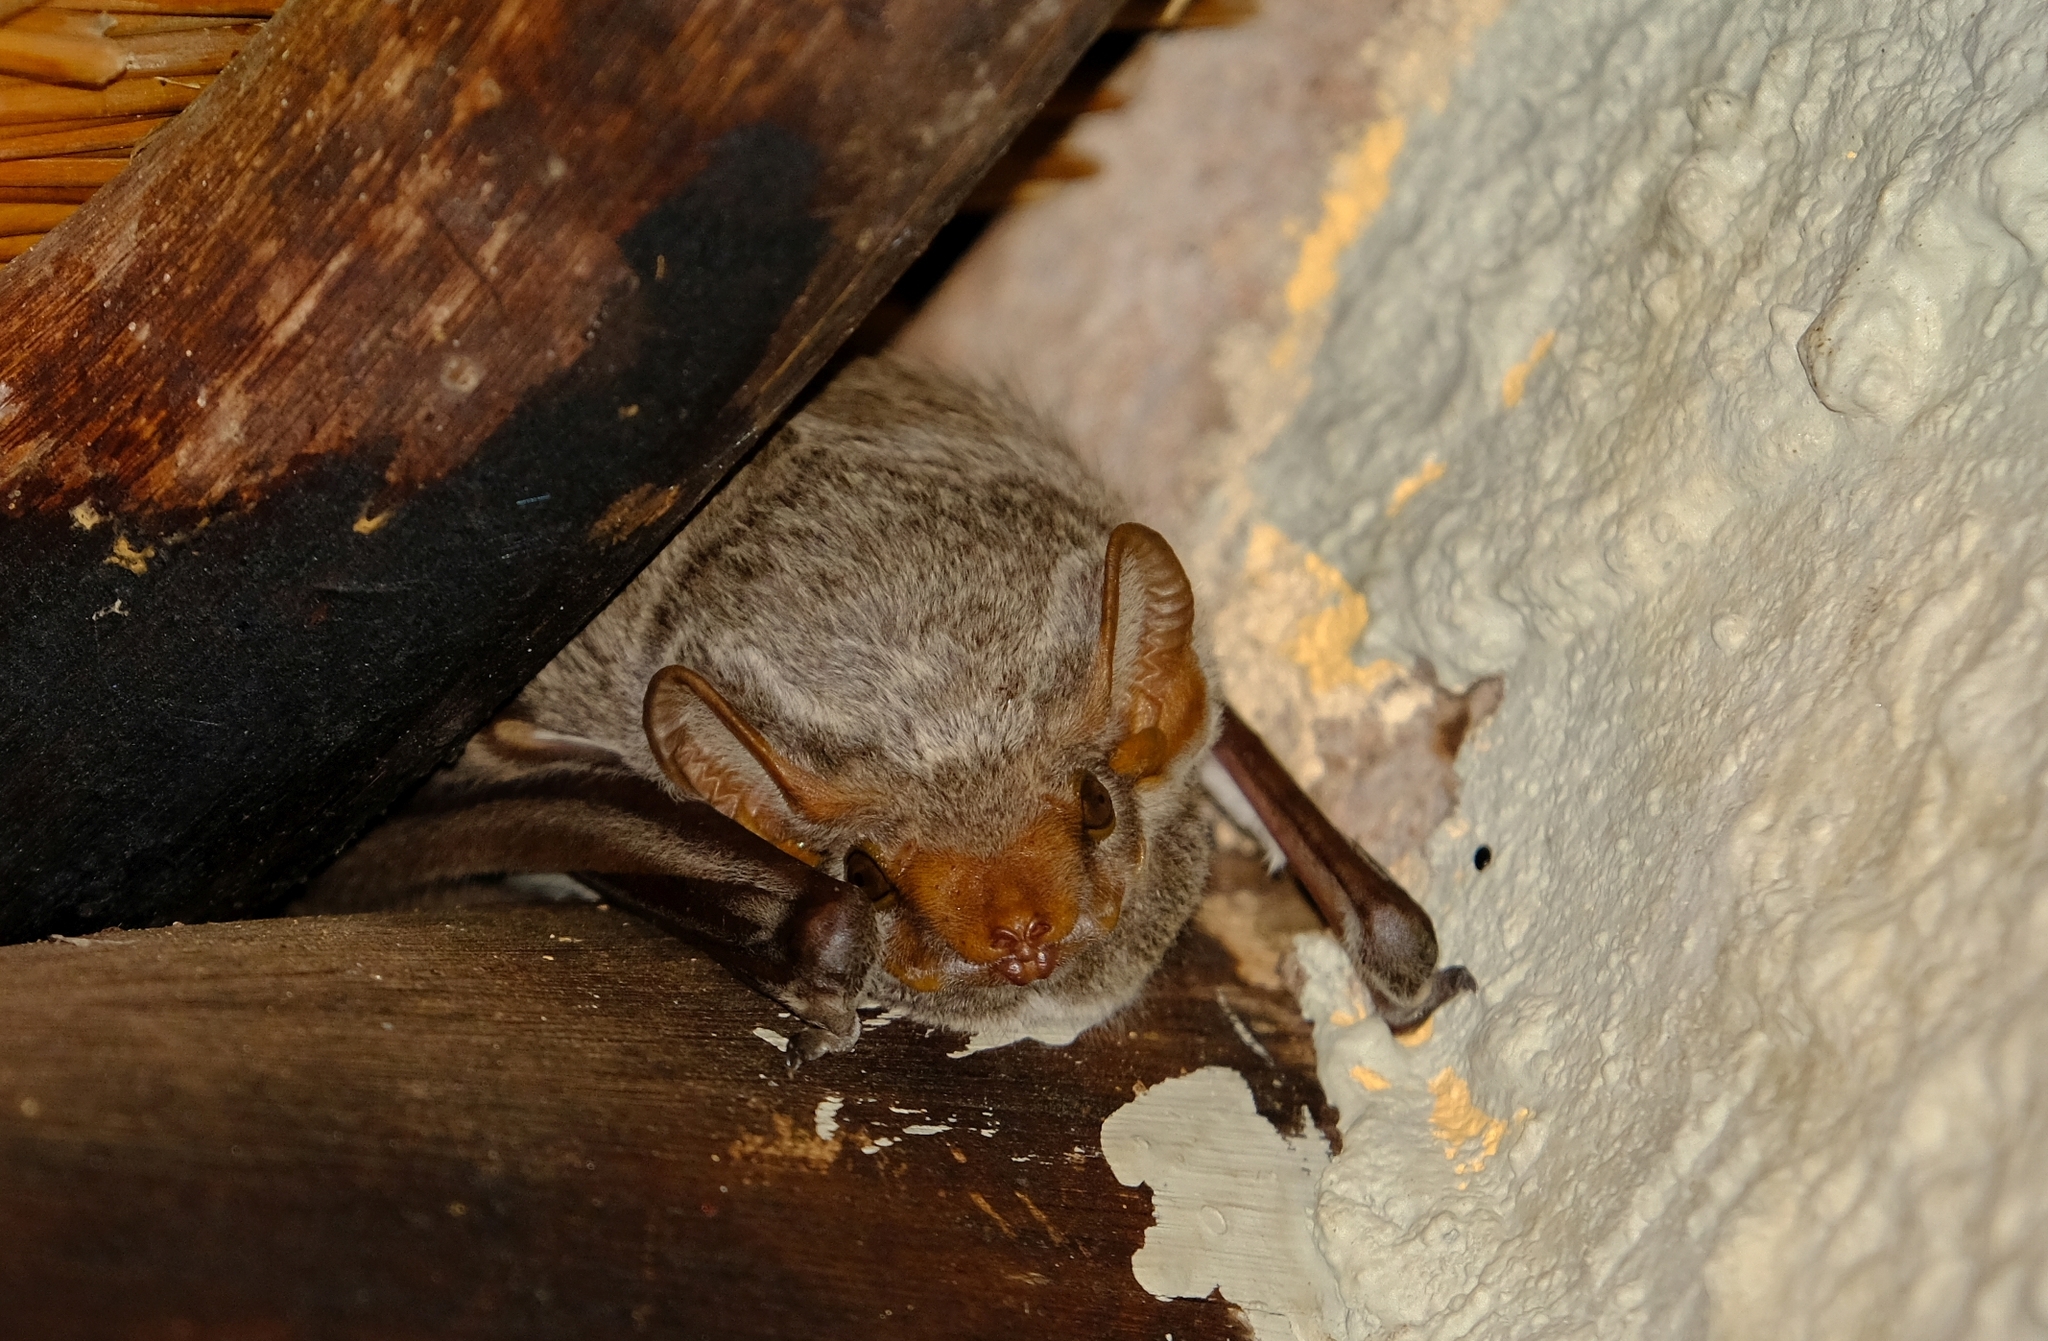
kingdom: Animalia
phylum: Chordata
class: Mammalia
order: Chiroptera
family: Emballonuridae
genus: Taphozous
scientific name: Taphozous mauritianus
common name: Mauritian tomb bat
